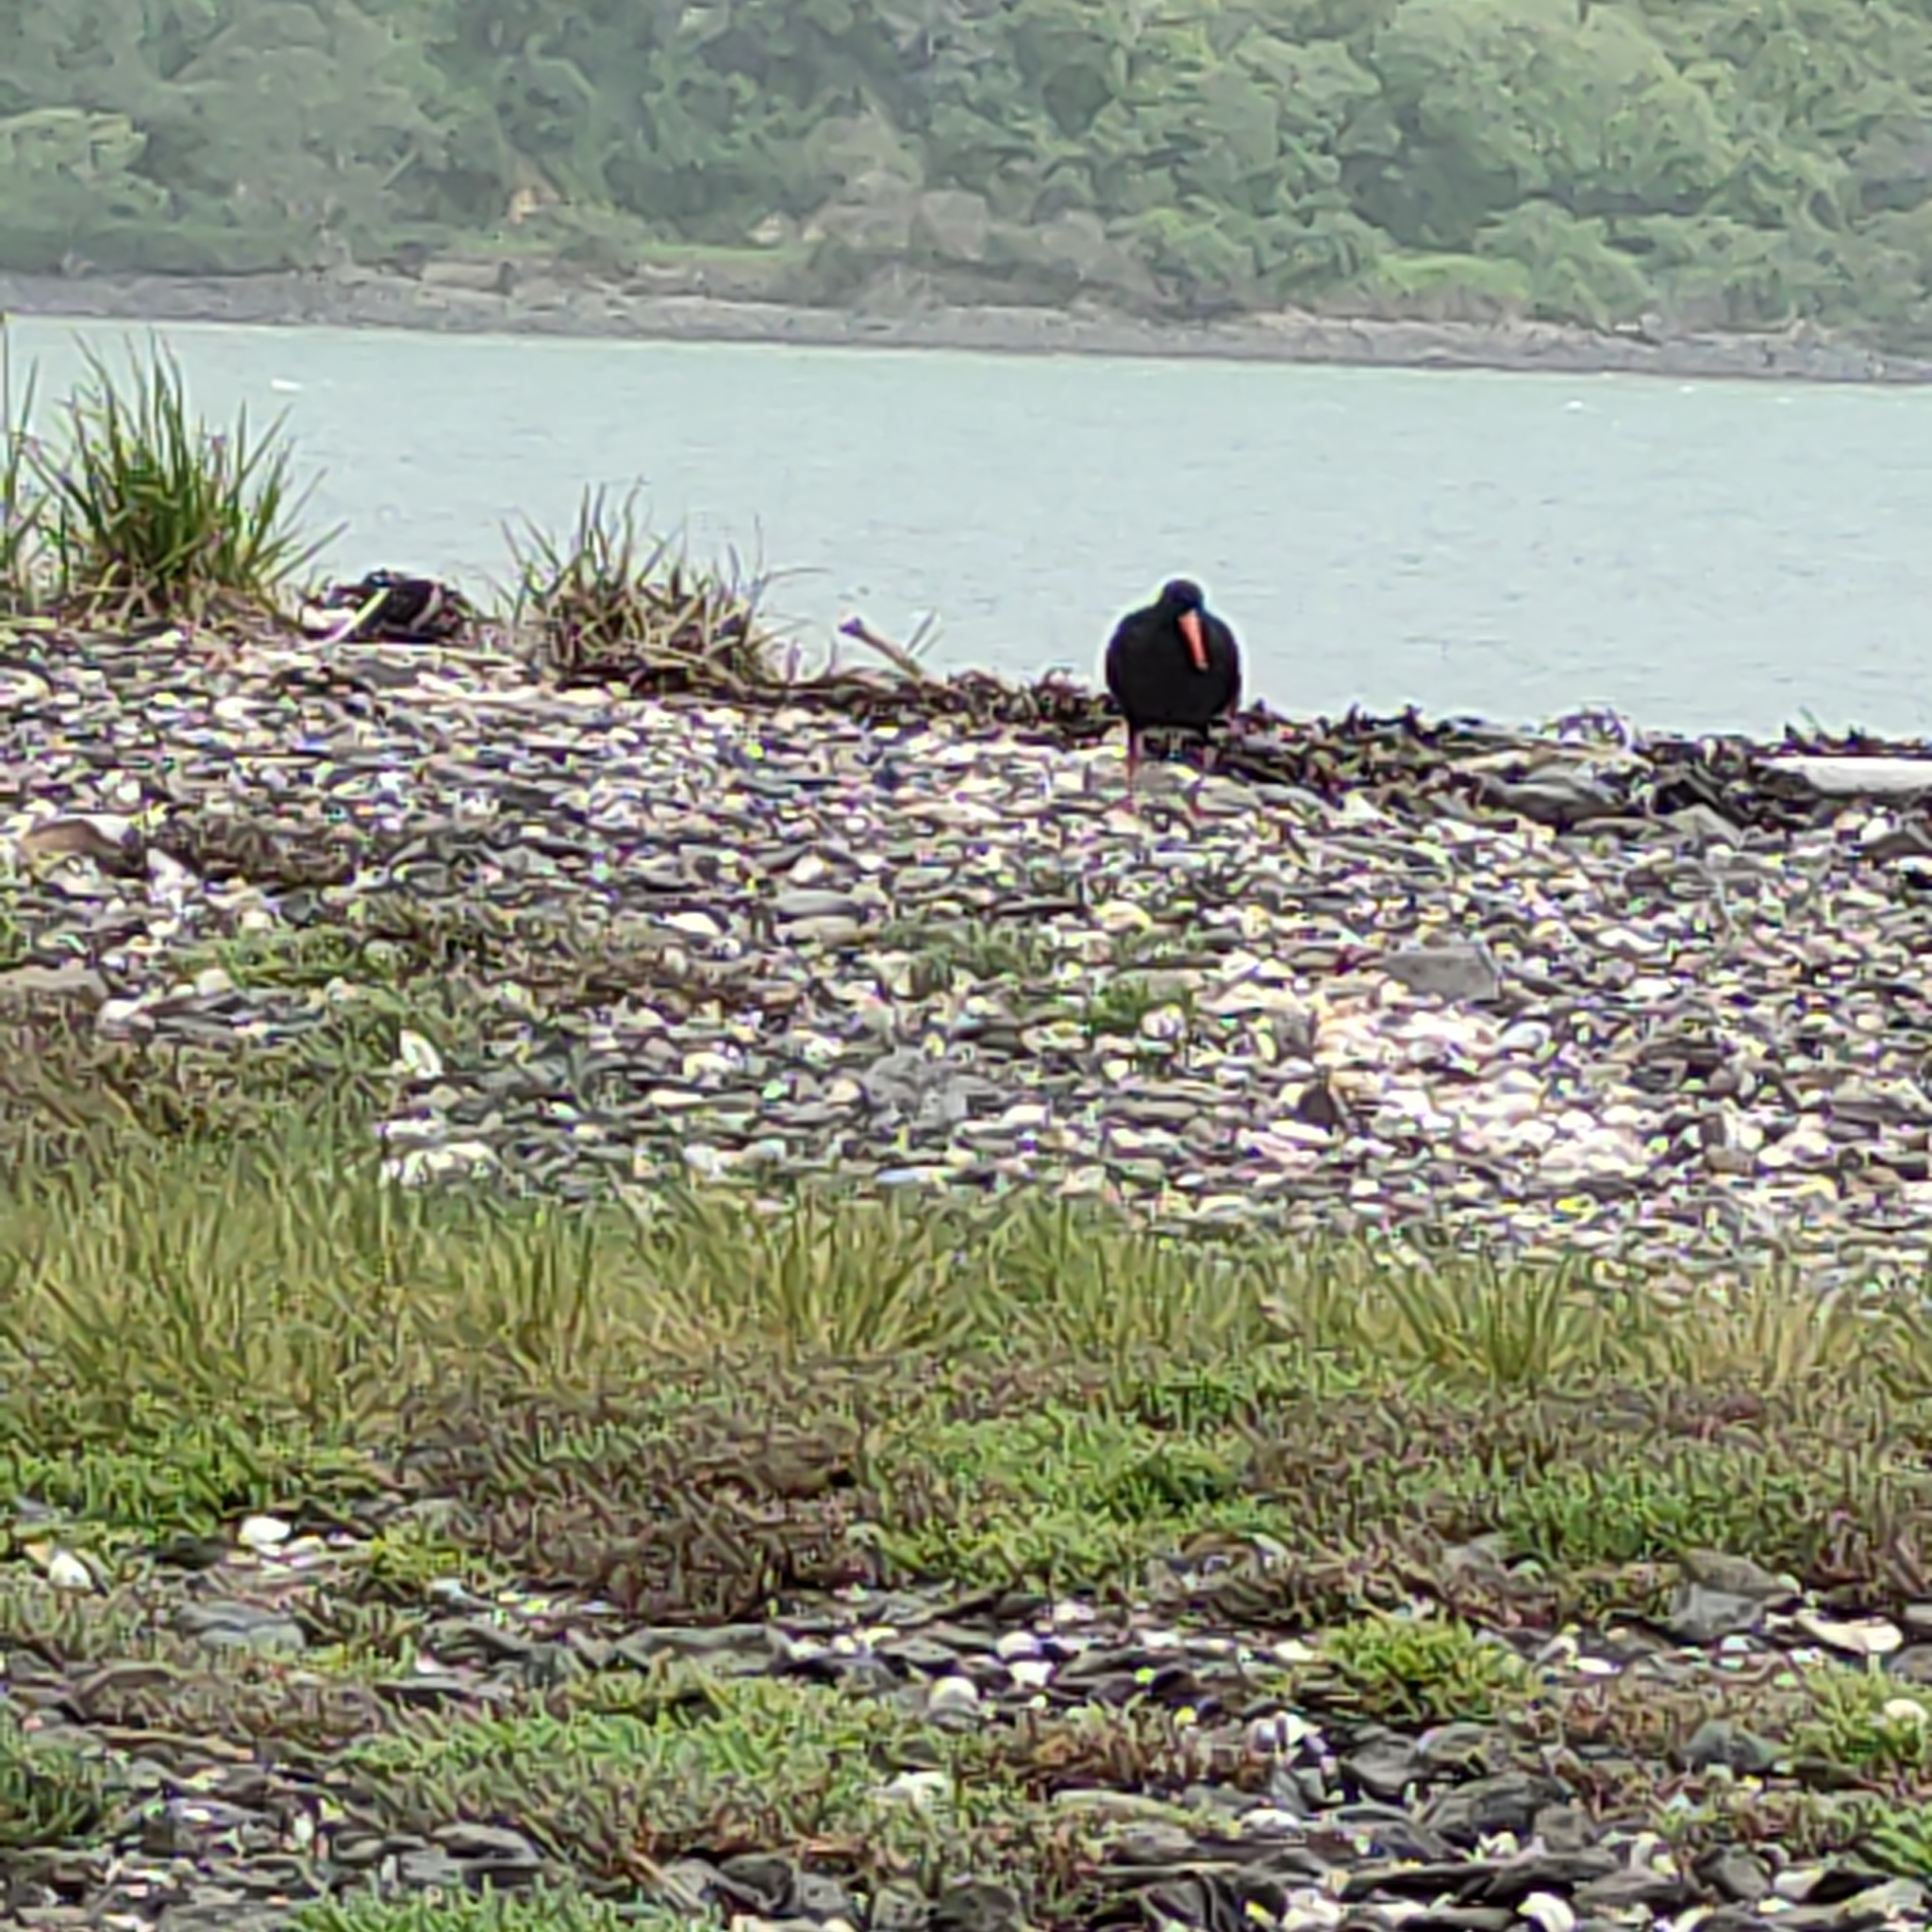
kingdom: Animalia
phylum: Chordata
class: Aves
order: Charadriiformes
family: Haematopodidae
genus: Haematopus
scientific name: Haematopus unicolor
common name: Variable oystercatcher
